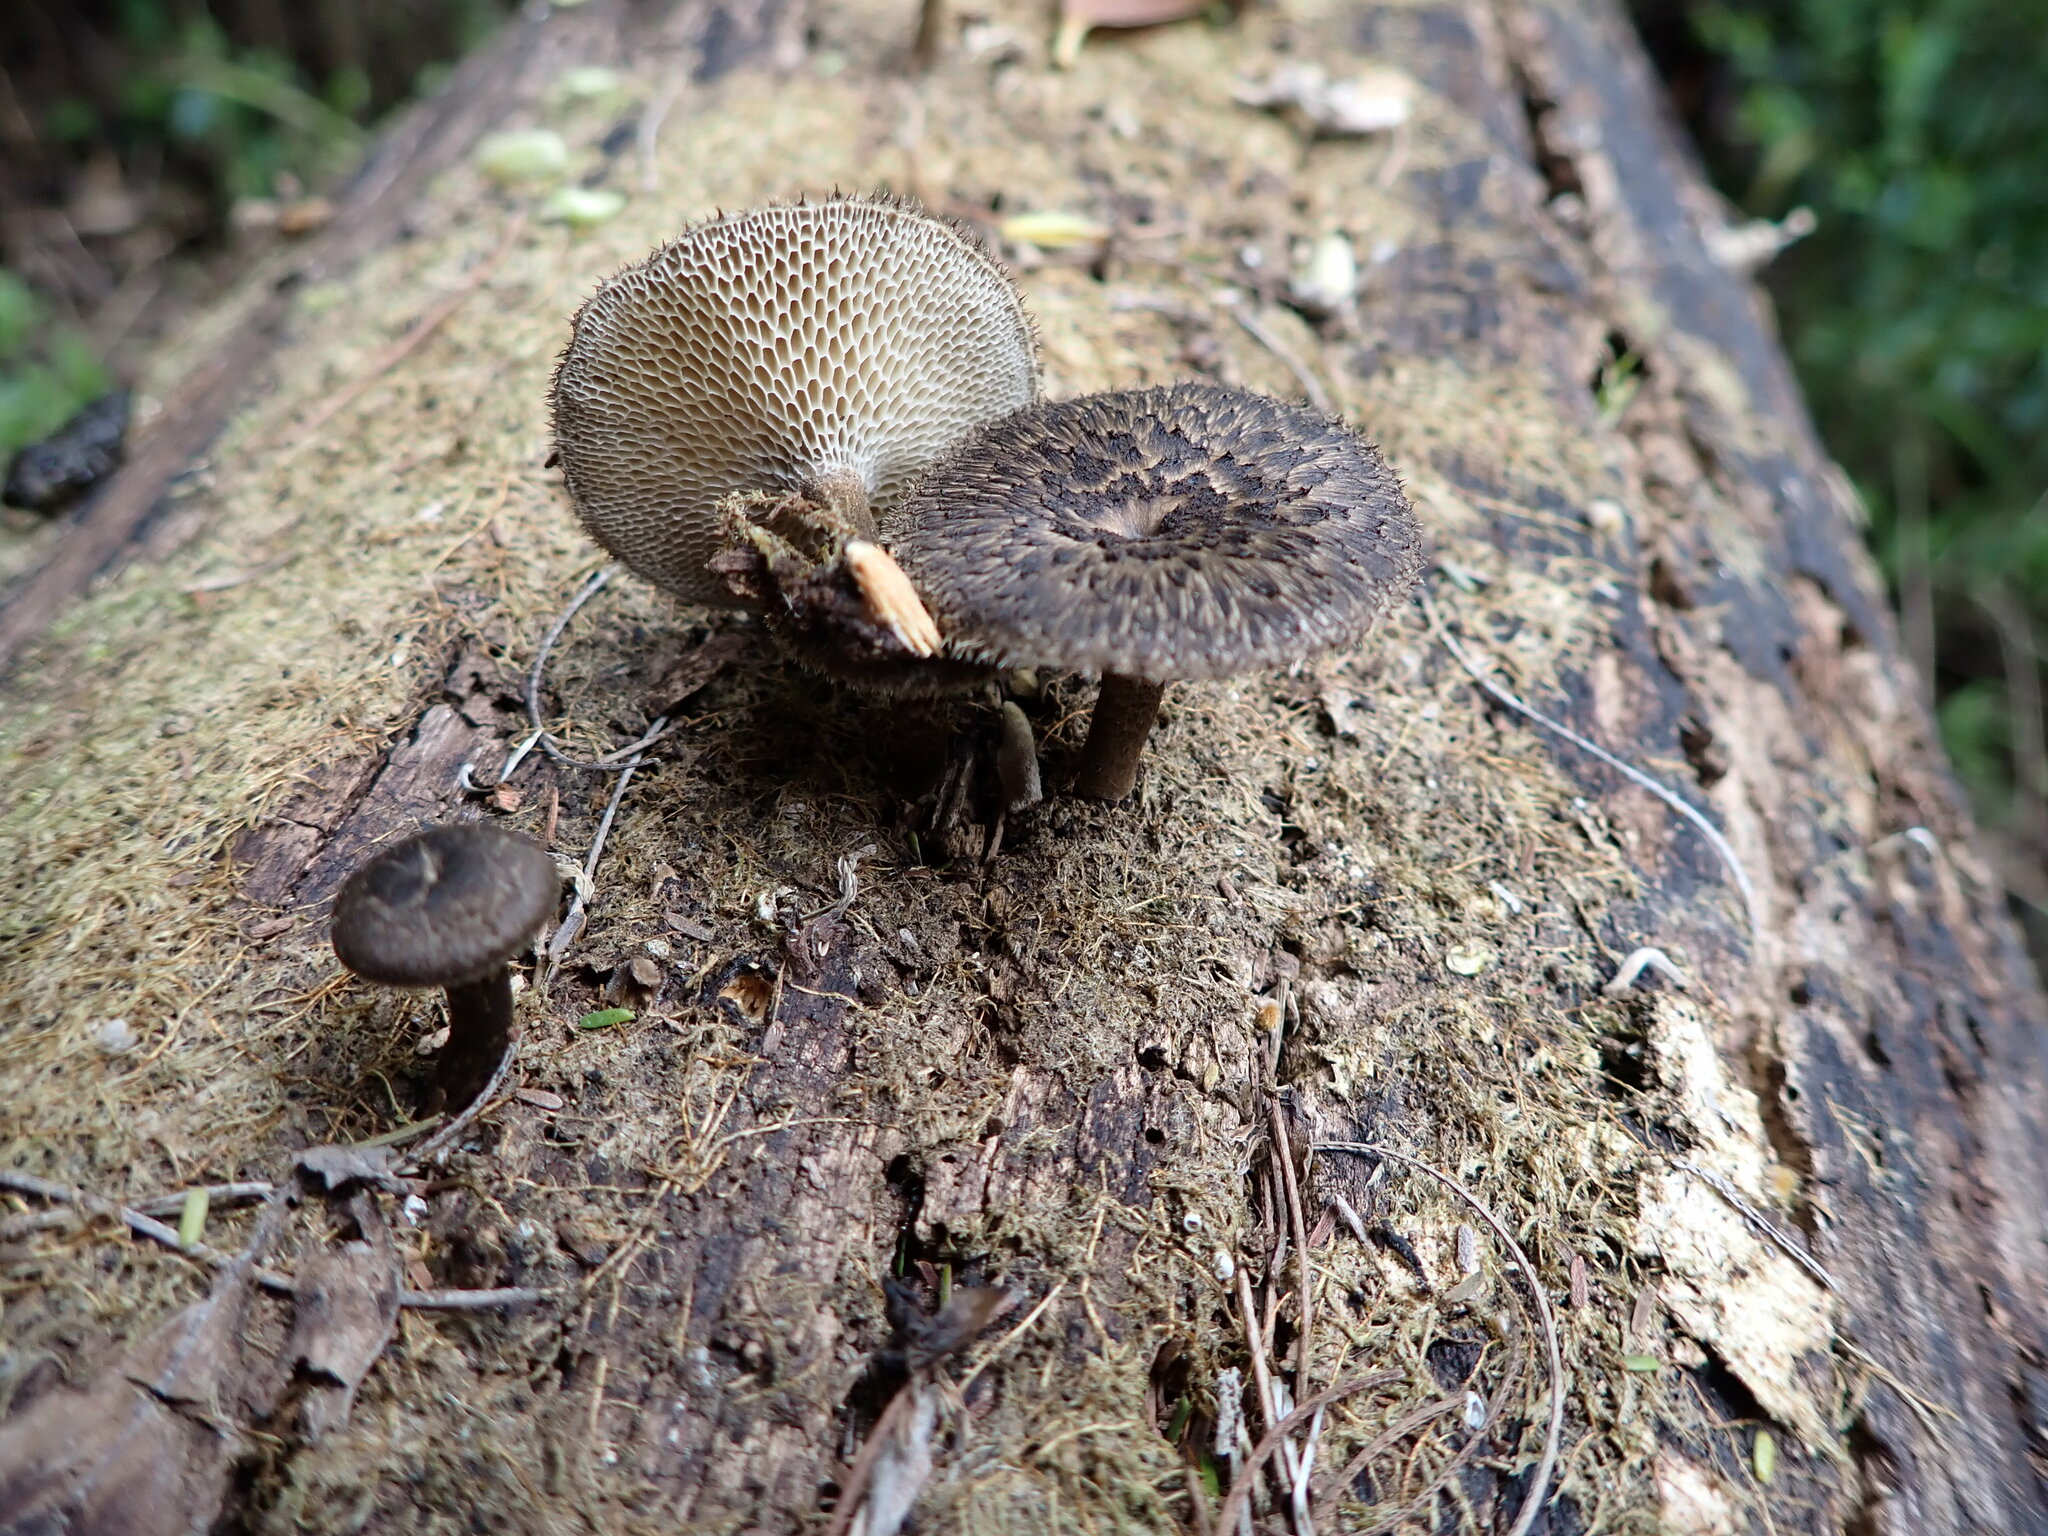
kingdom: Fungi
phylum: Basidiomycota
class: Agaricomycetes
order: Polyporales
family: Polyporaceae
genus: Lentinus
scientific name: Lentinus arcularius
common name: Spring polypore
